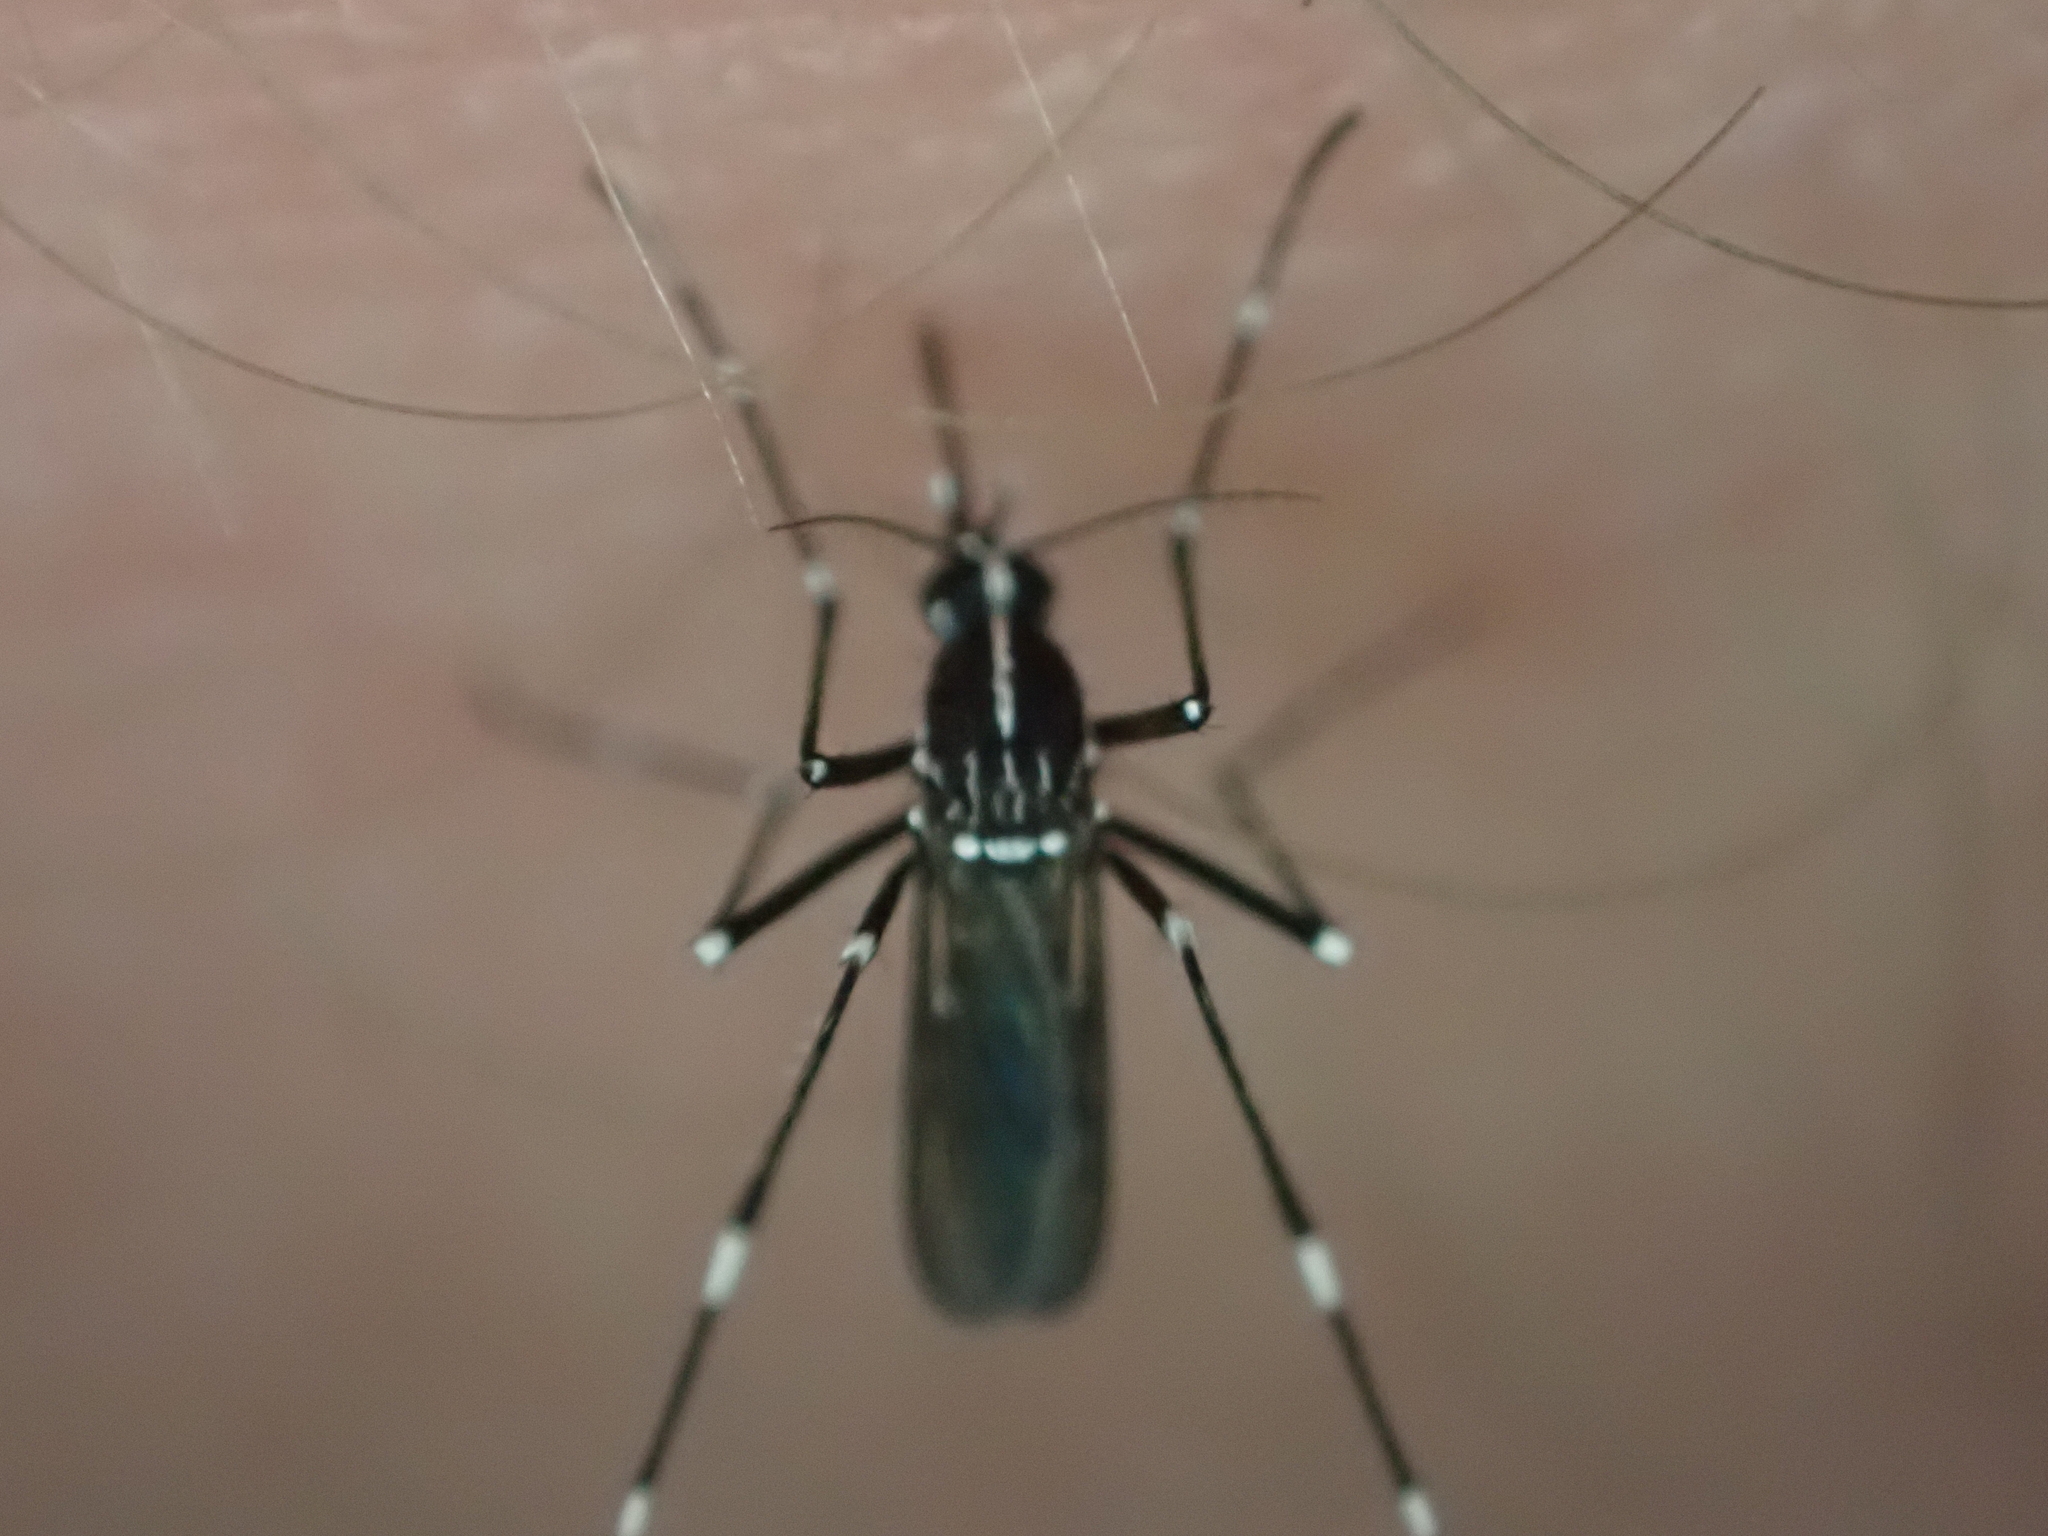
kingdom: Animalia
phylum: Arthropoda
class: Insecta
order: Diptera
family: Culicidae
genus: Aedes
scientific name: Aedes albopictus
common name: Tiger mosquito
